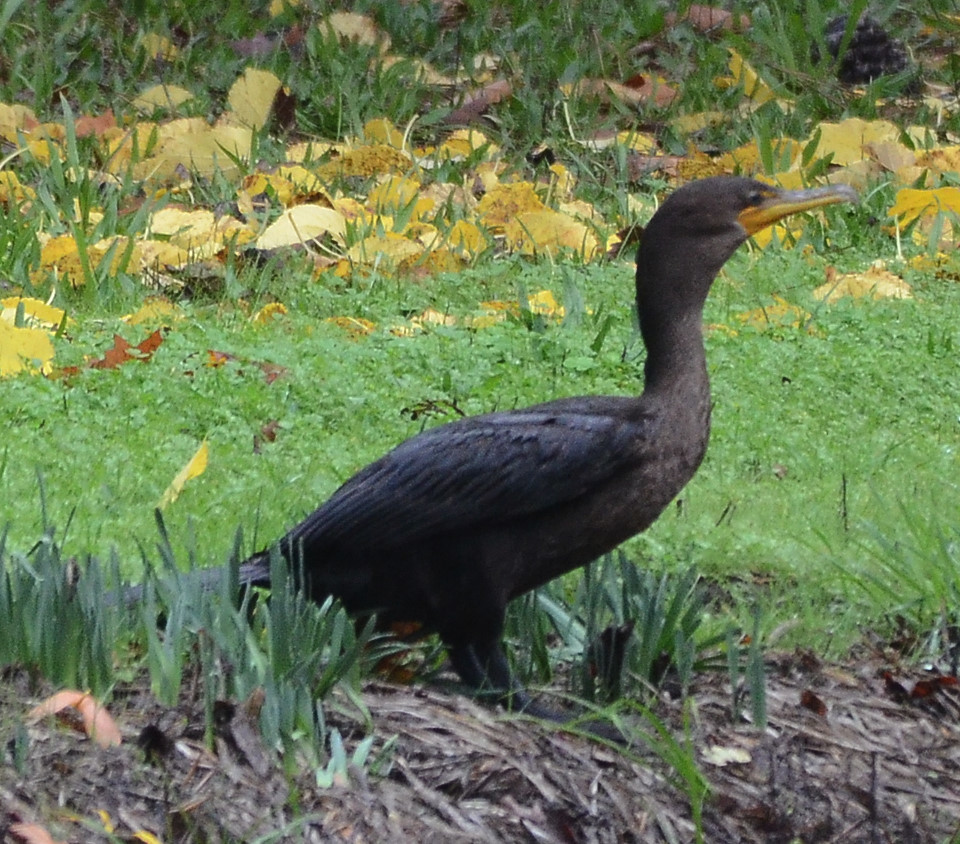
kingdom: Animalia
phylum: Chordata
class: Aves
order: Suliformes
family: Phalacrocoracidae
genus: Phalacrocorax
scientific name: Phalacrocorax auritus
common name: Double-crested cormorant
